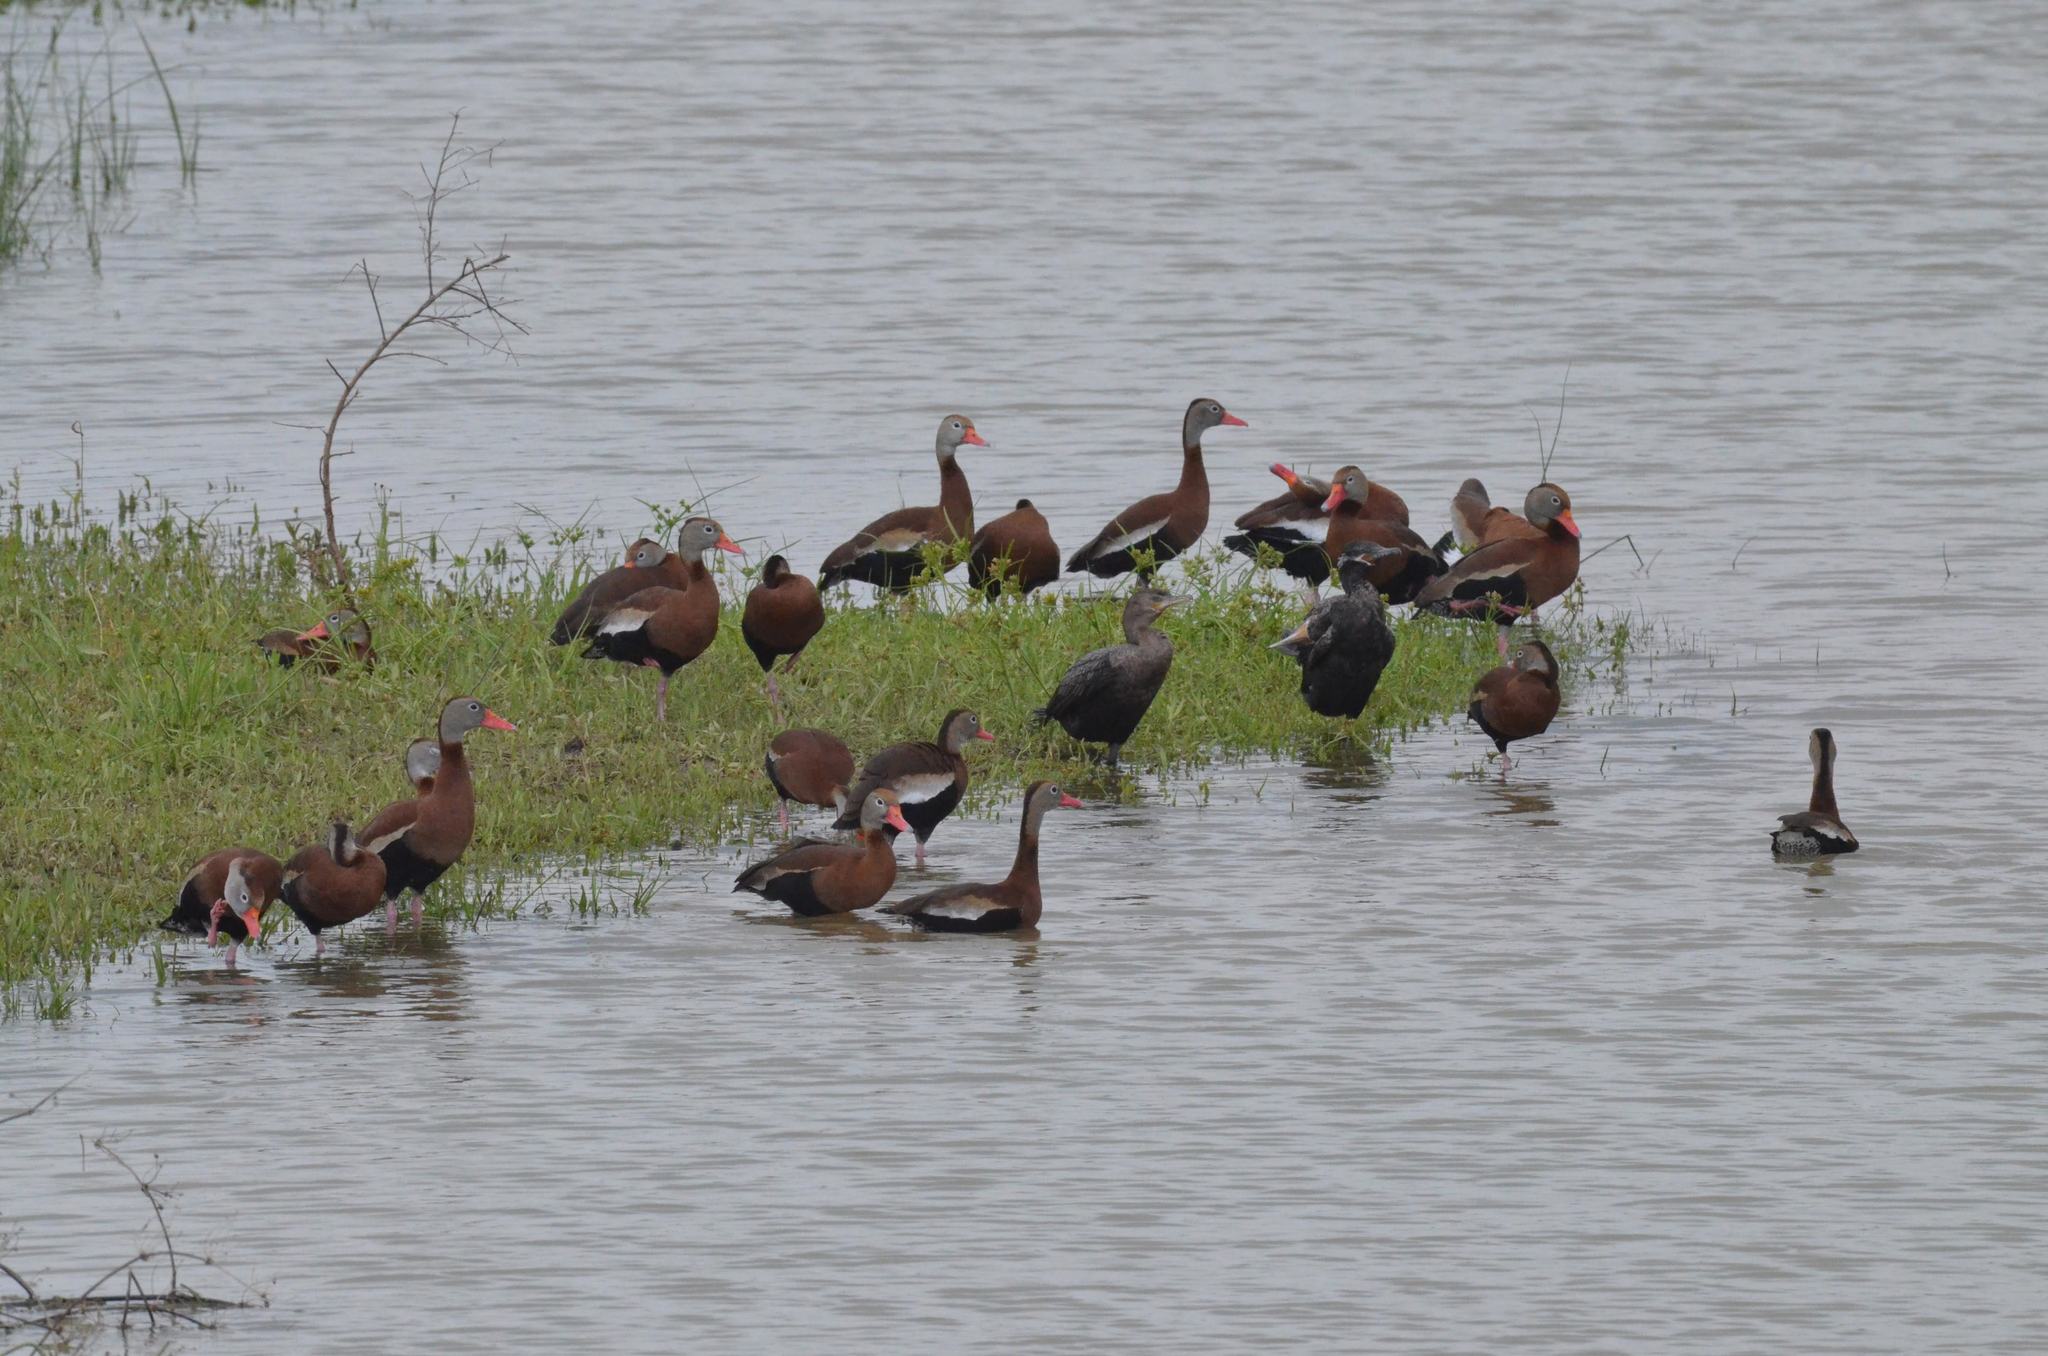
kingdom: Animalia
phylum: Chordata
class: Aves
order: Anseriformes
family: Anatidae
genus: Dendrocygna
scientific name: Dendrocygna autumnalis
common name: Black-bellied whistling duck
